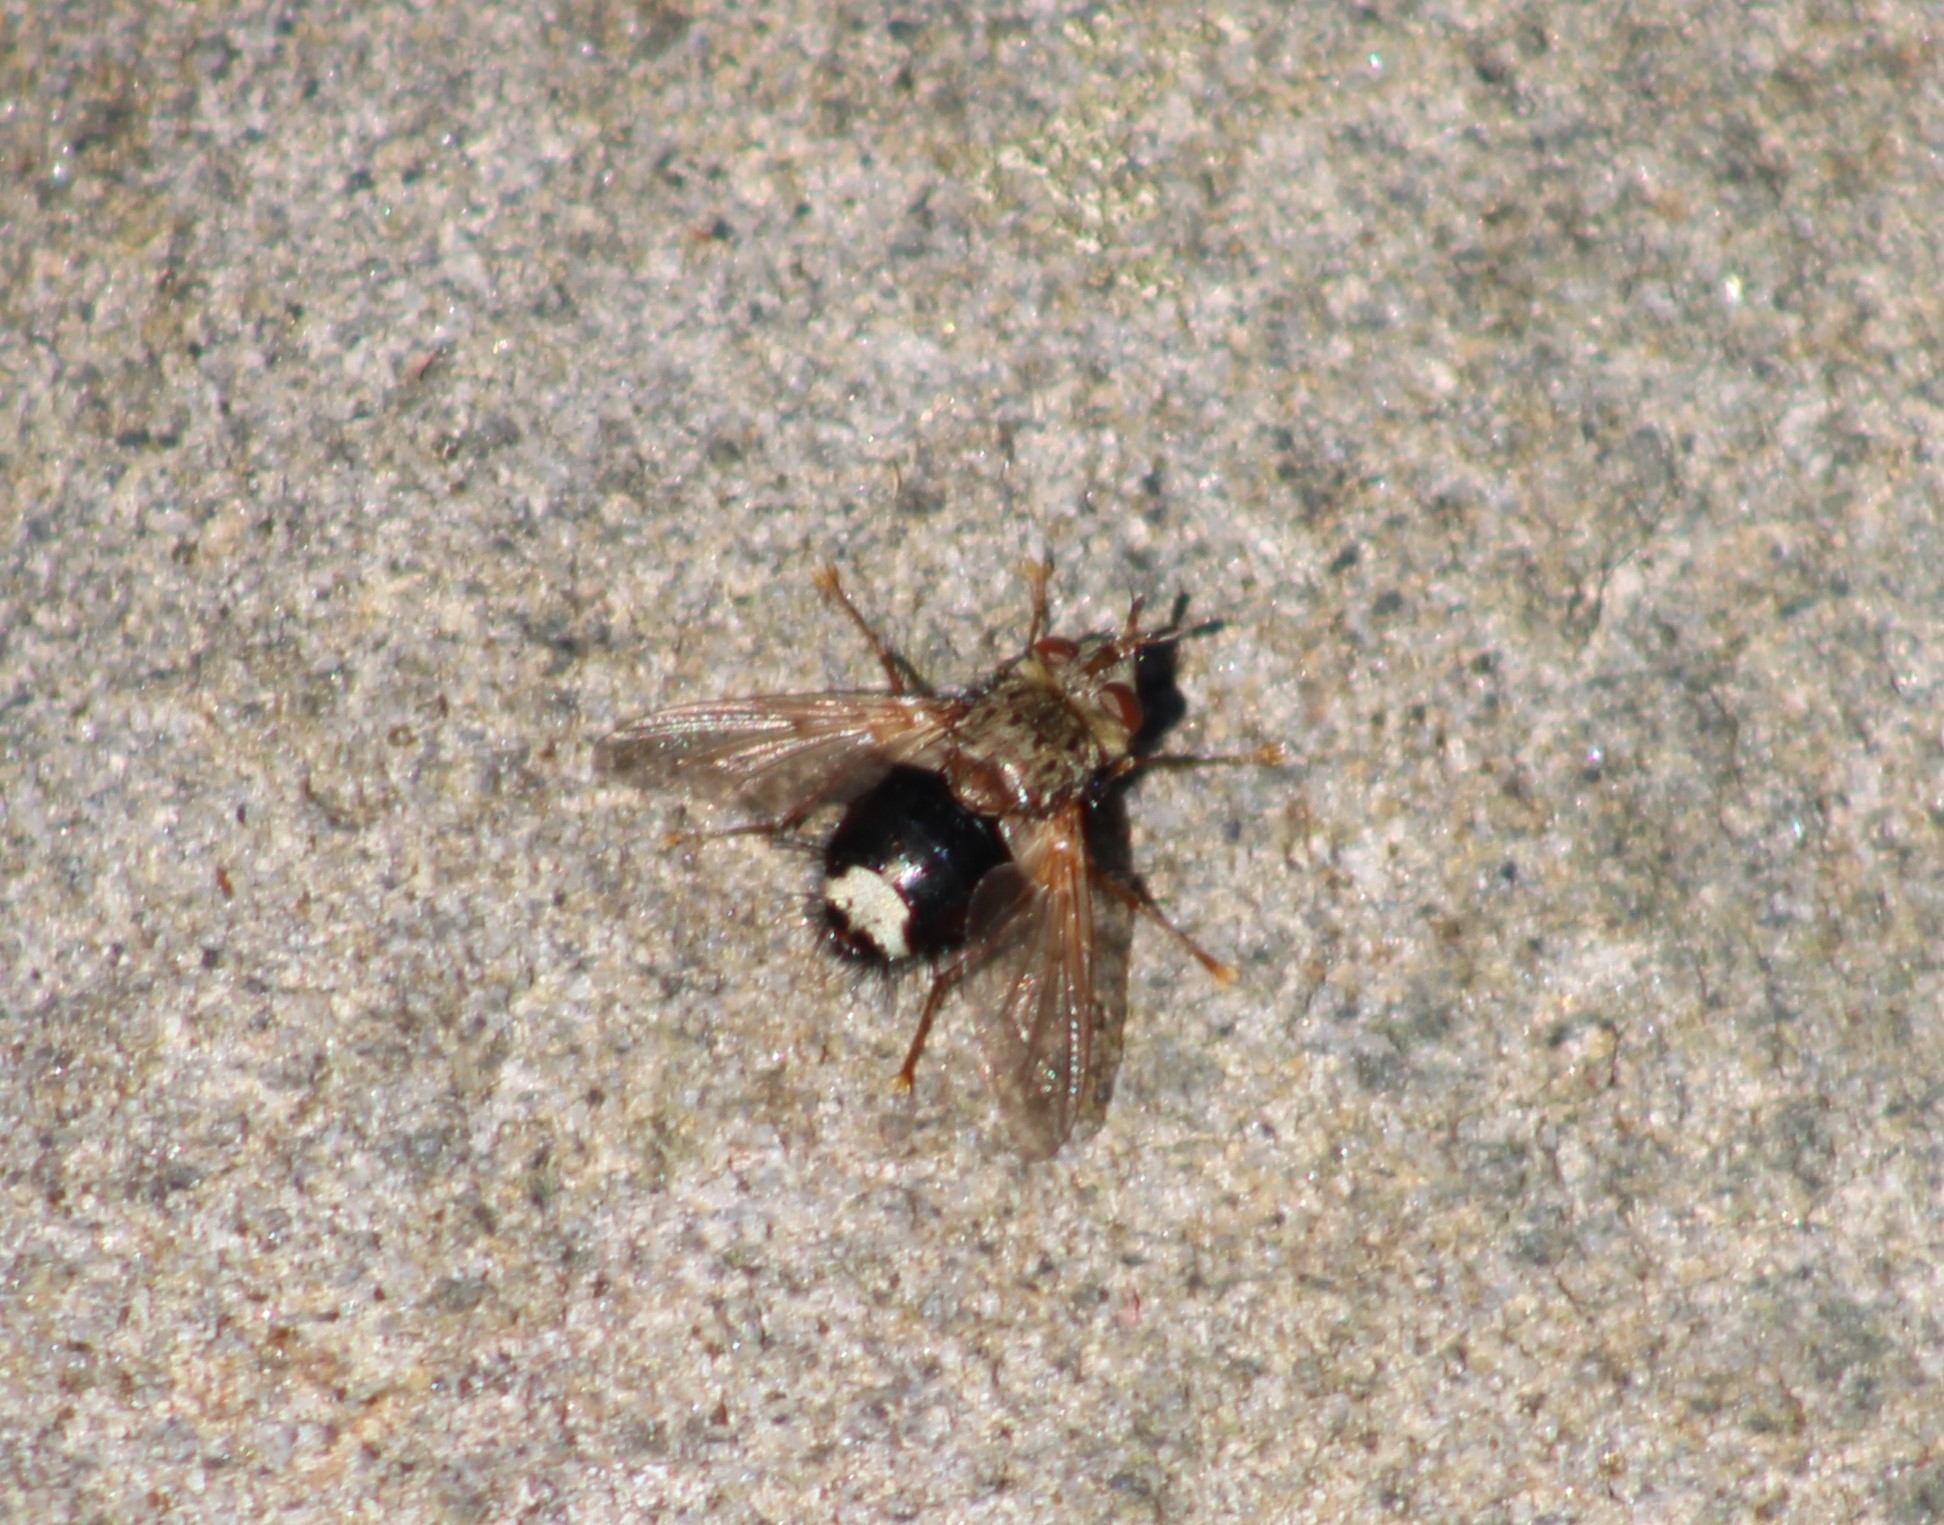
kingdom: Animalia
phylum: Arthropoda
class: Insecta
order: Diptera
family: Tachinidae
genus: Epalpus
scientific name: Epalpus signifer
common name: Early tachinid fly
